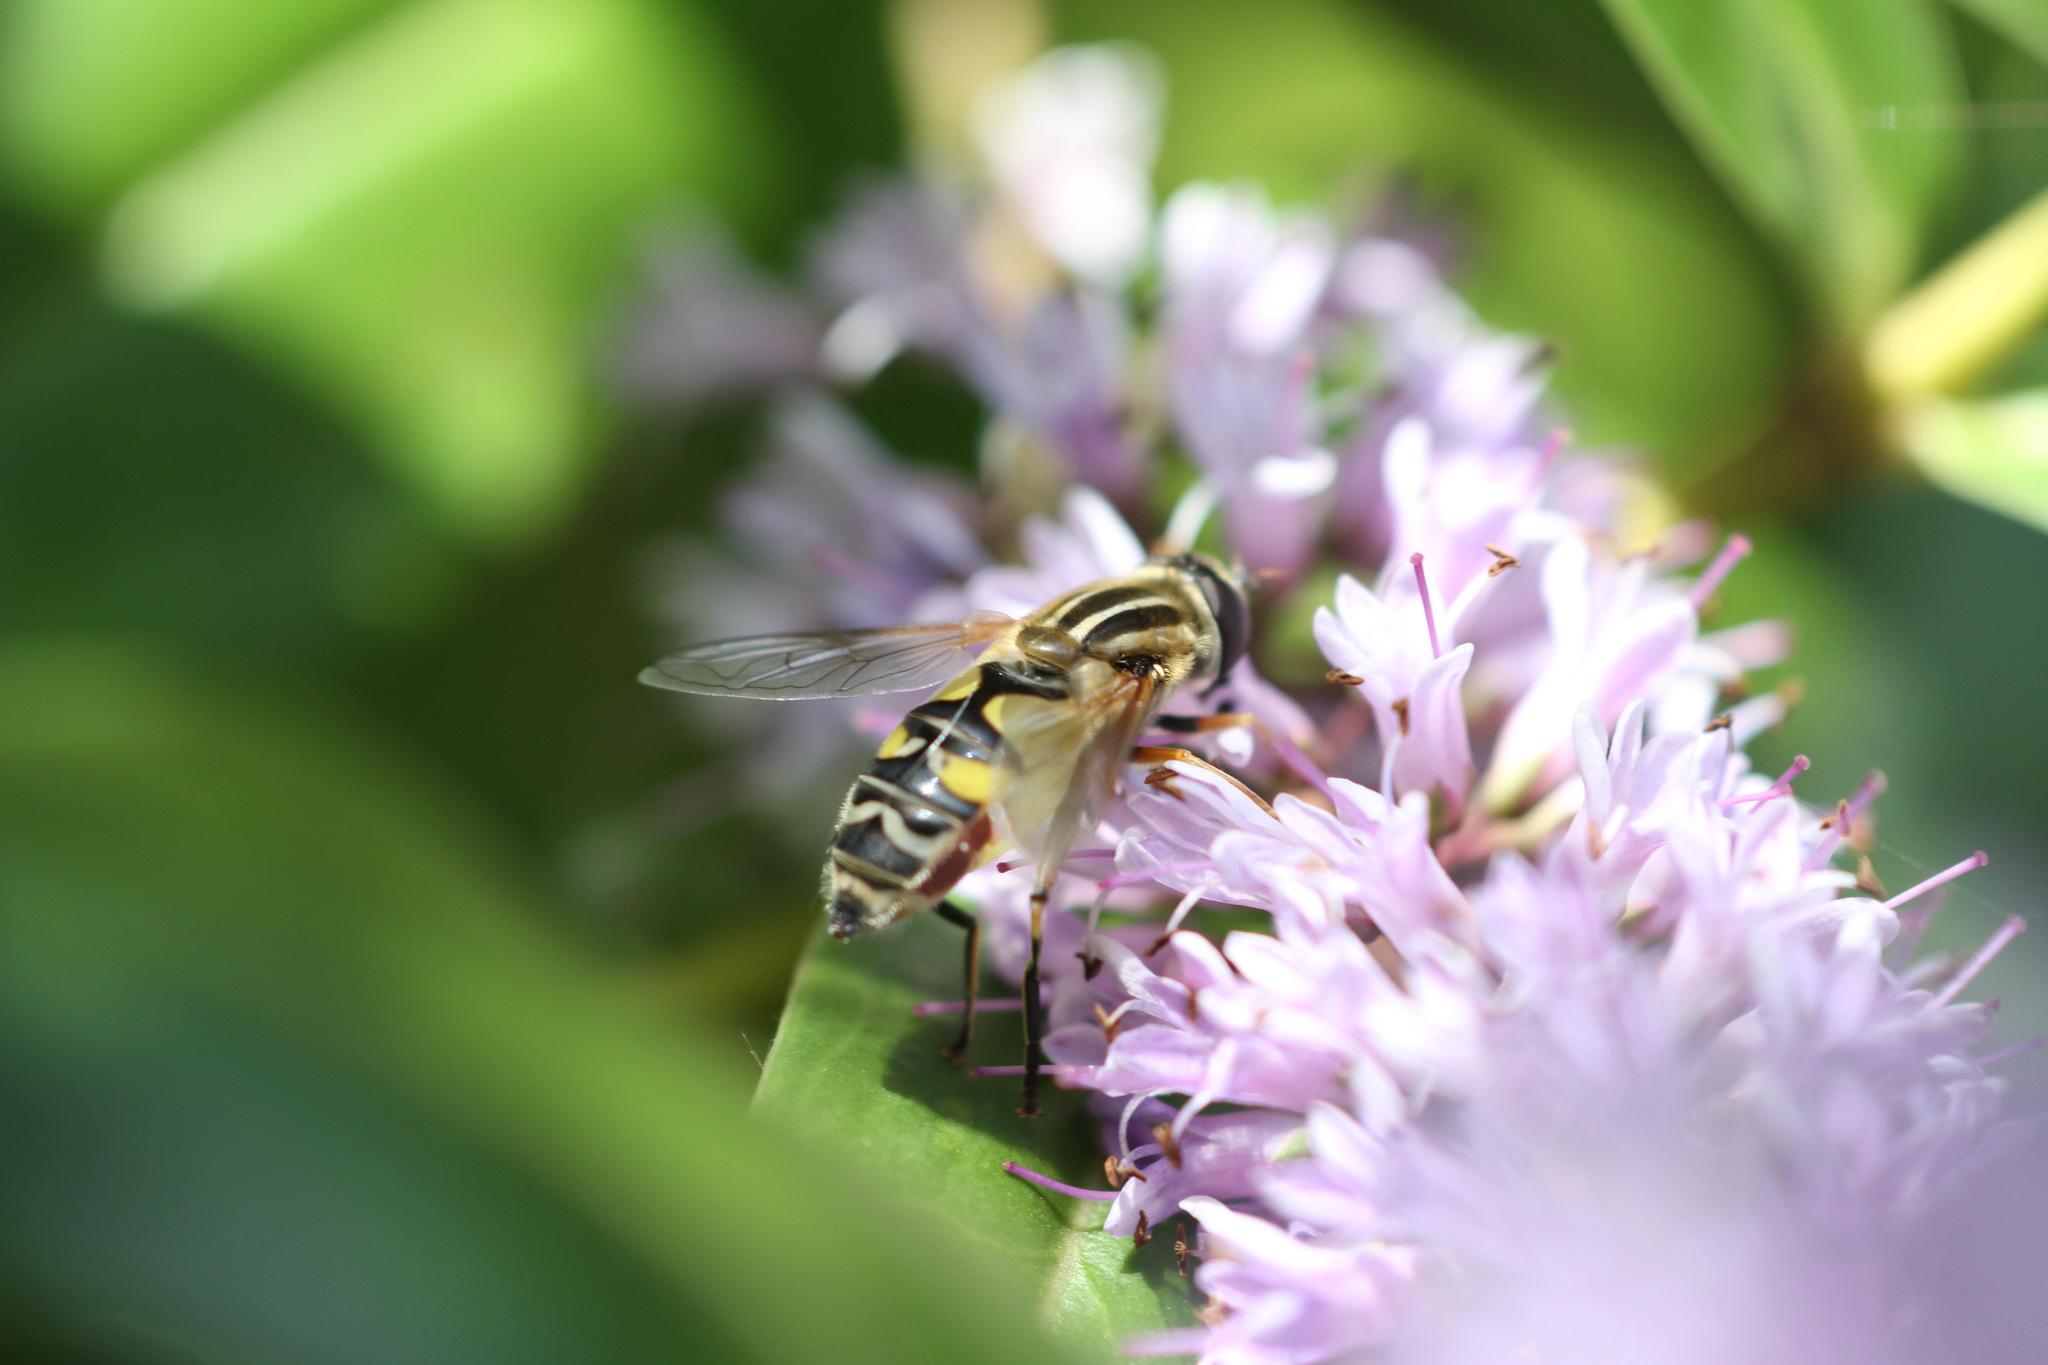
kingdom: Animalia
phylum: Arthropoda
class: Insecta
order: Diptera
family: Syrphidae
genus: Helophilus
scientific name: Helophilus trivittatus
